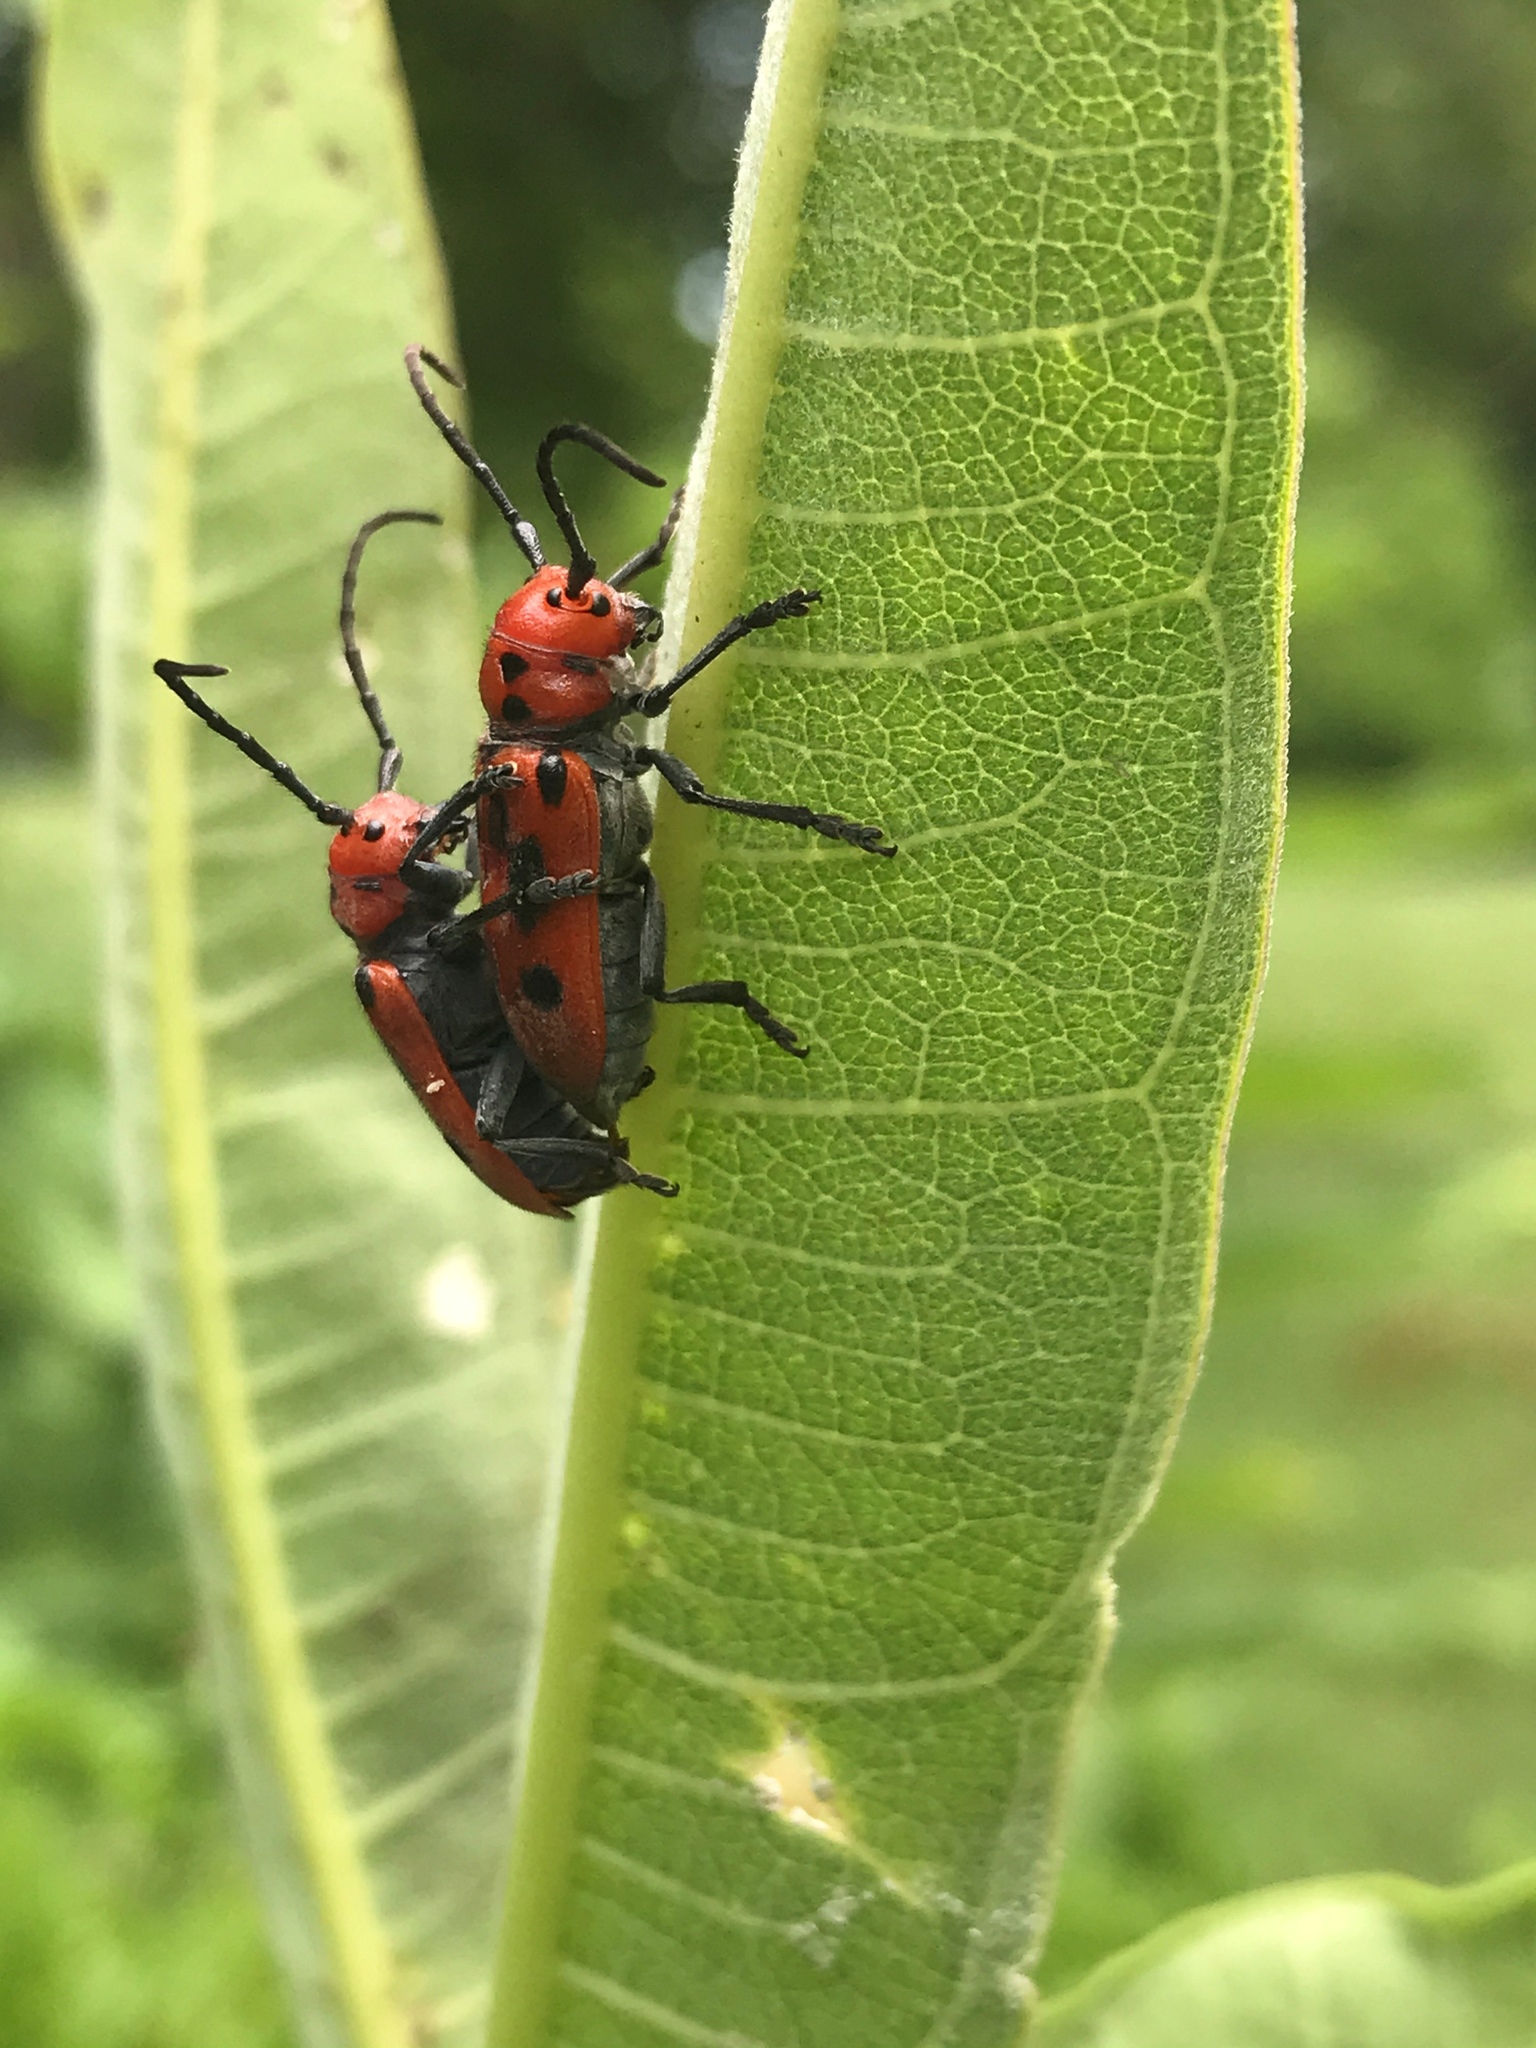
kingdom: Animalia
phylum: Arthropoda
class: Insecta
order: Coleoptera
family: Cerambycidae
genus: Tetraopes
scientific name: Tetraopes tetrophthalmus
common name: Red milkweed beetle
